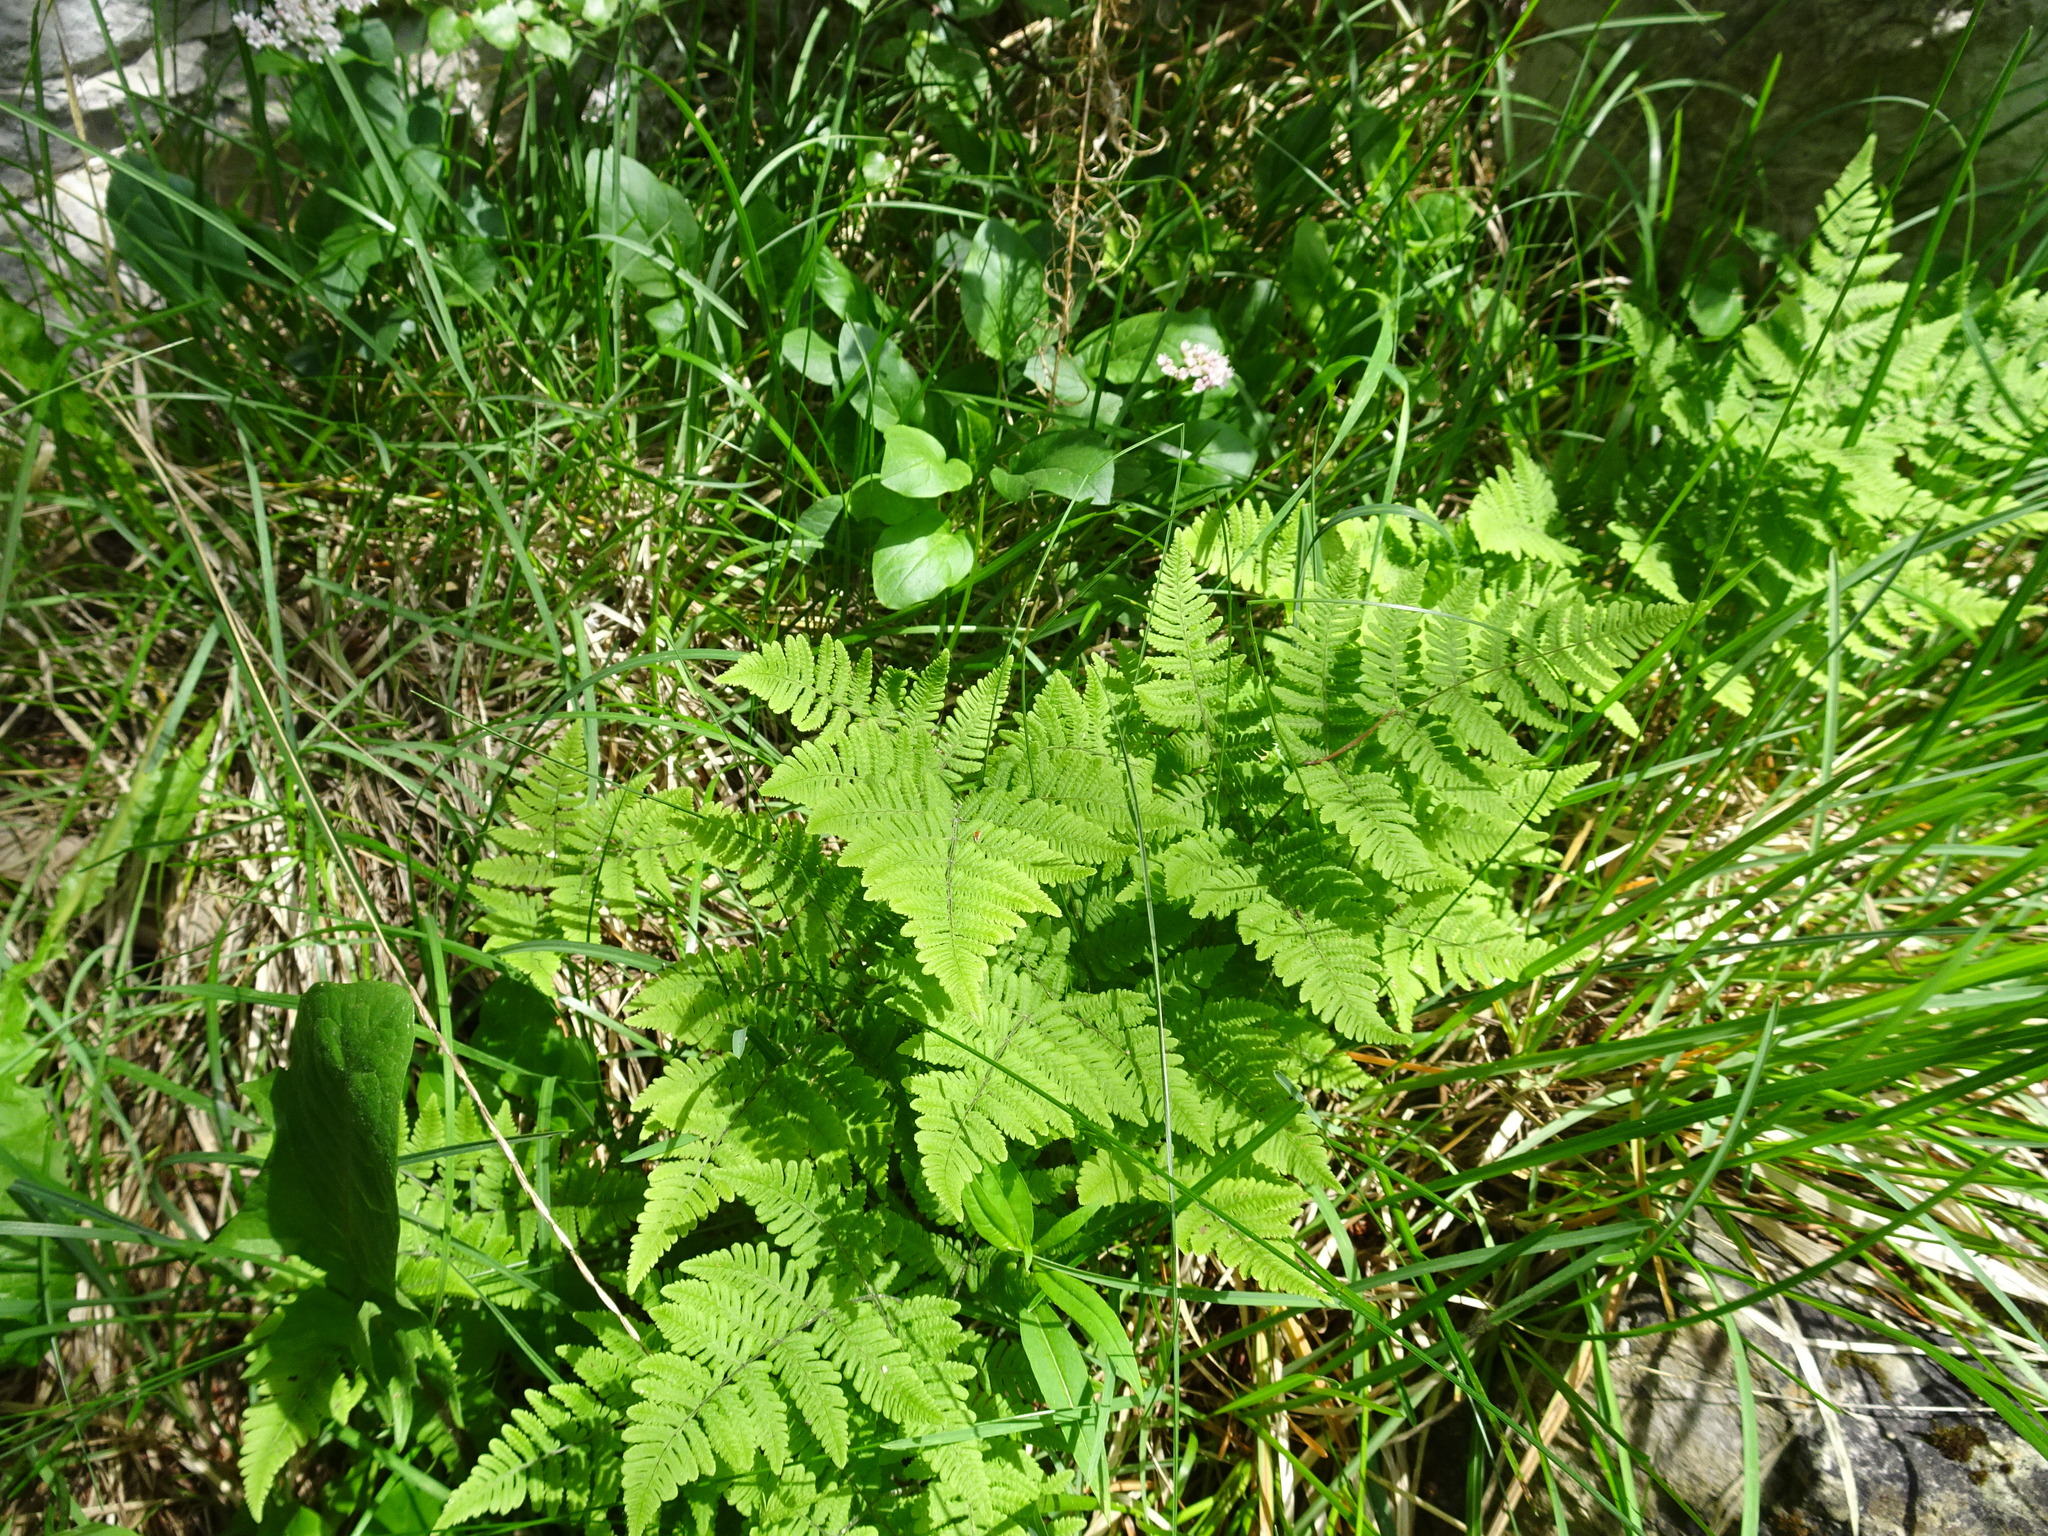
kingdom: Plantae
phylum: Tracheophyta
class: Polypodiopsida
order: Polypodiales
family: Cystopteridaceae
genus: Gymnocarpium
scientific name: Gymnocarpium robertianum
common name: Limestone fern
